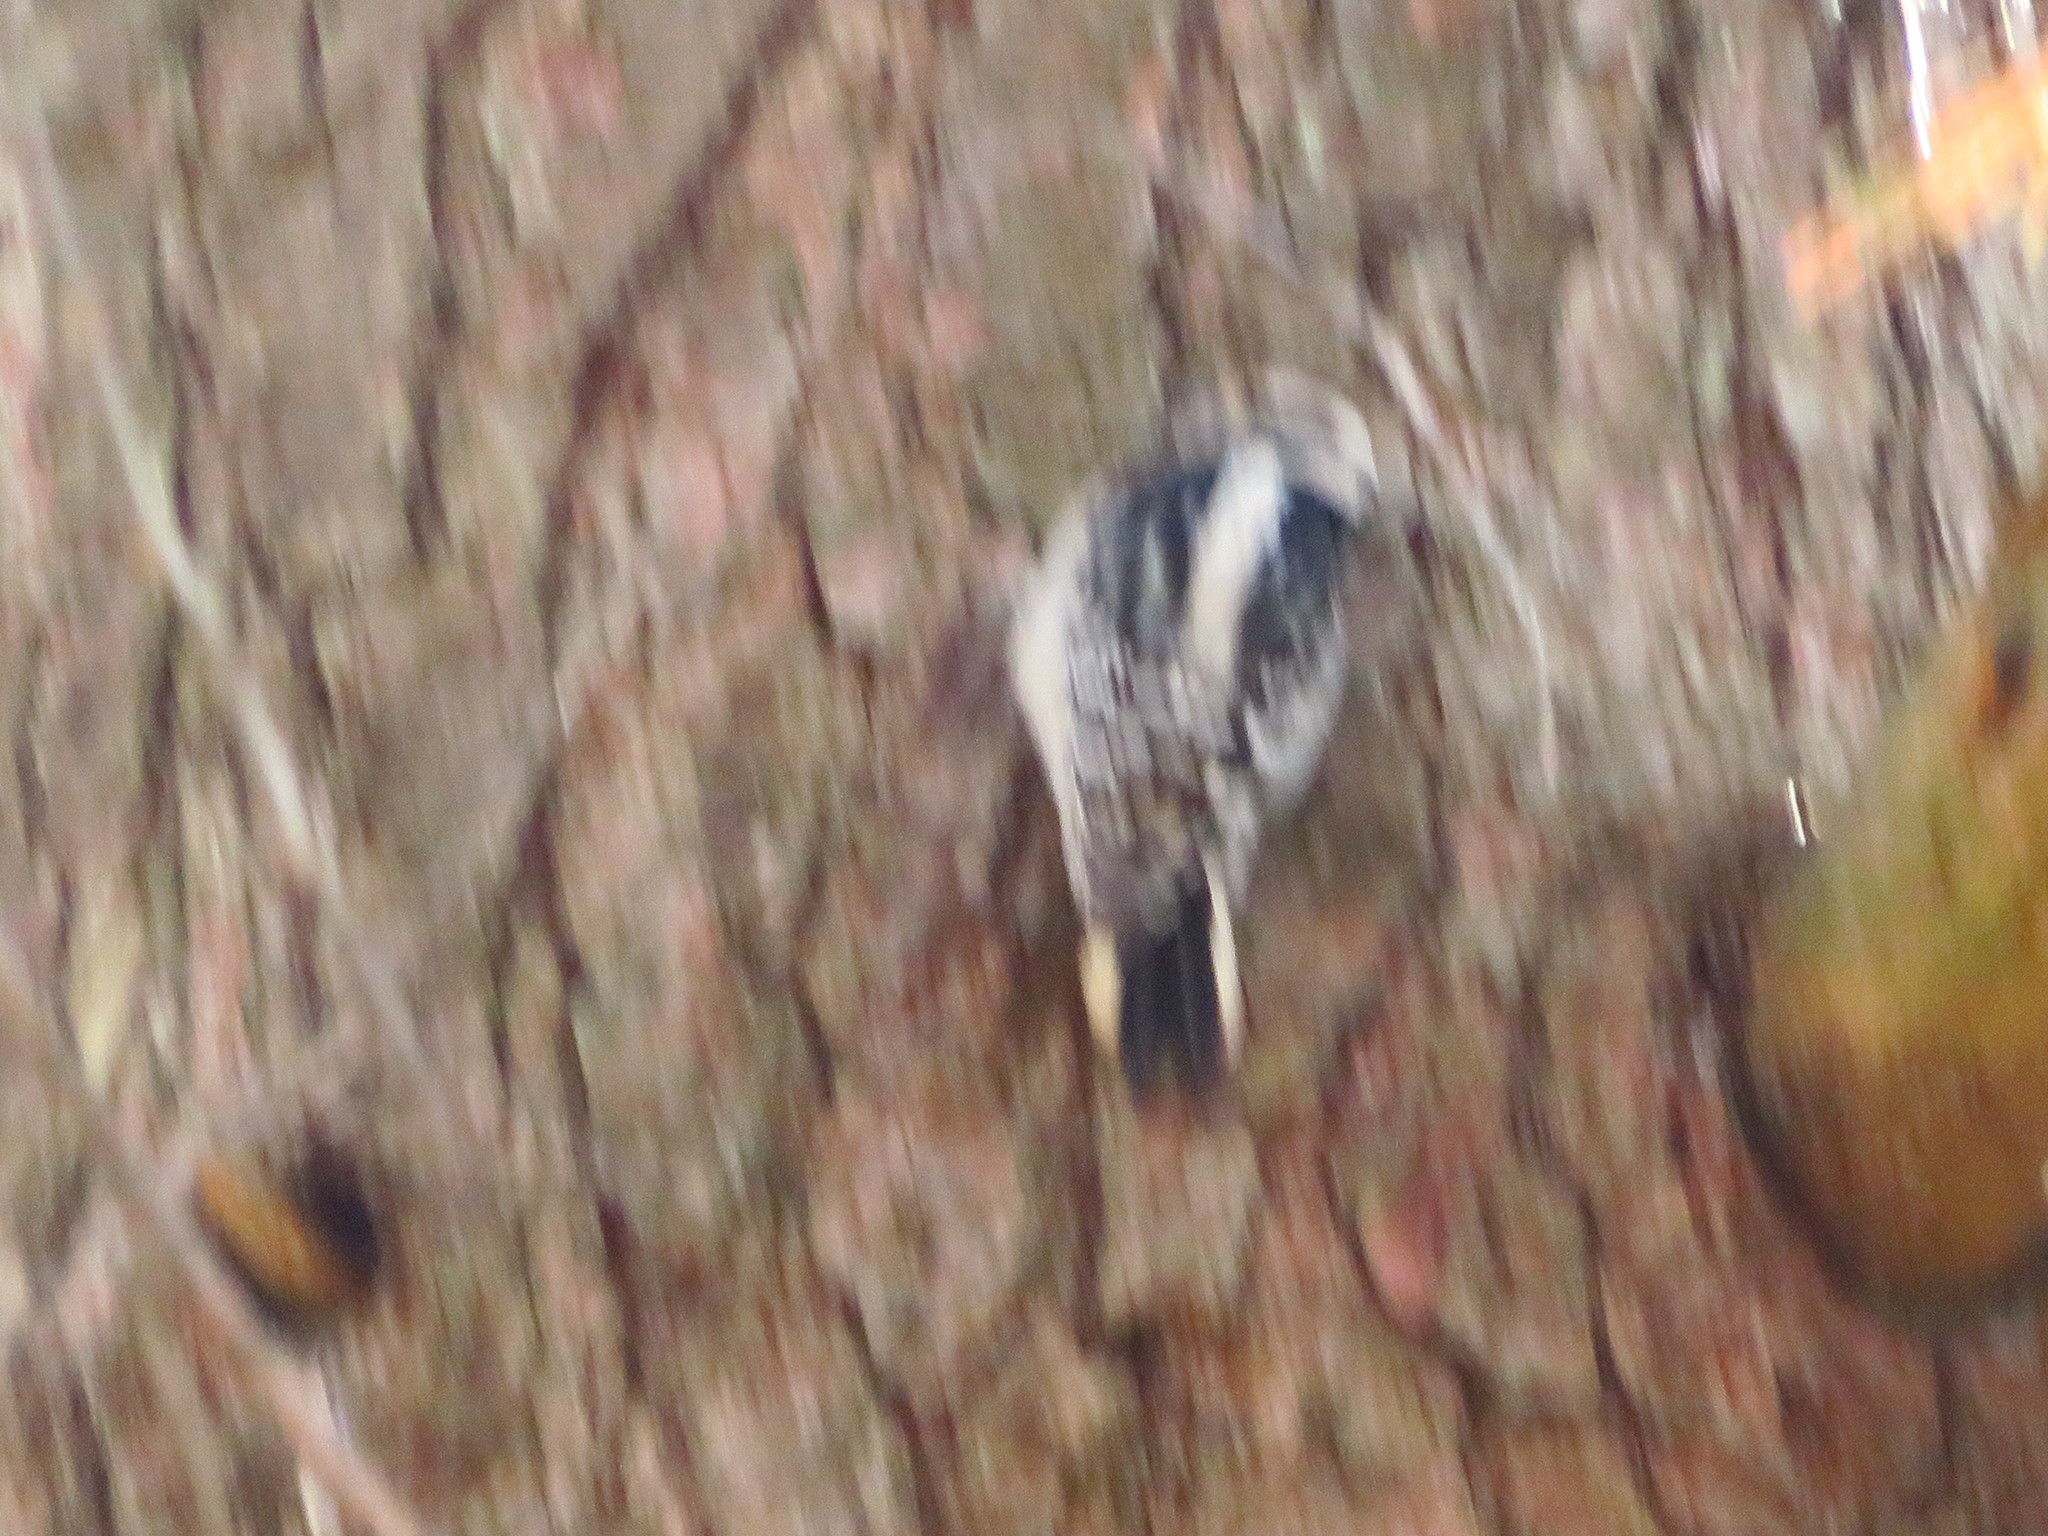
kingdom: Animalia
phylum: Chordata
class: Aves
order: Piciformes
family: Picidae
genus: Dryobates
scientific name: Dryobates pubescens
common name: Downy woodpecker
